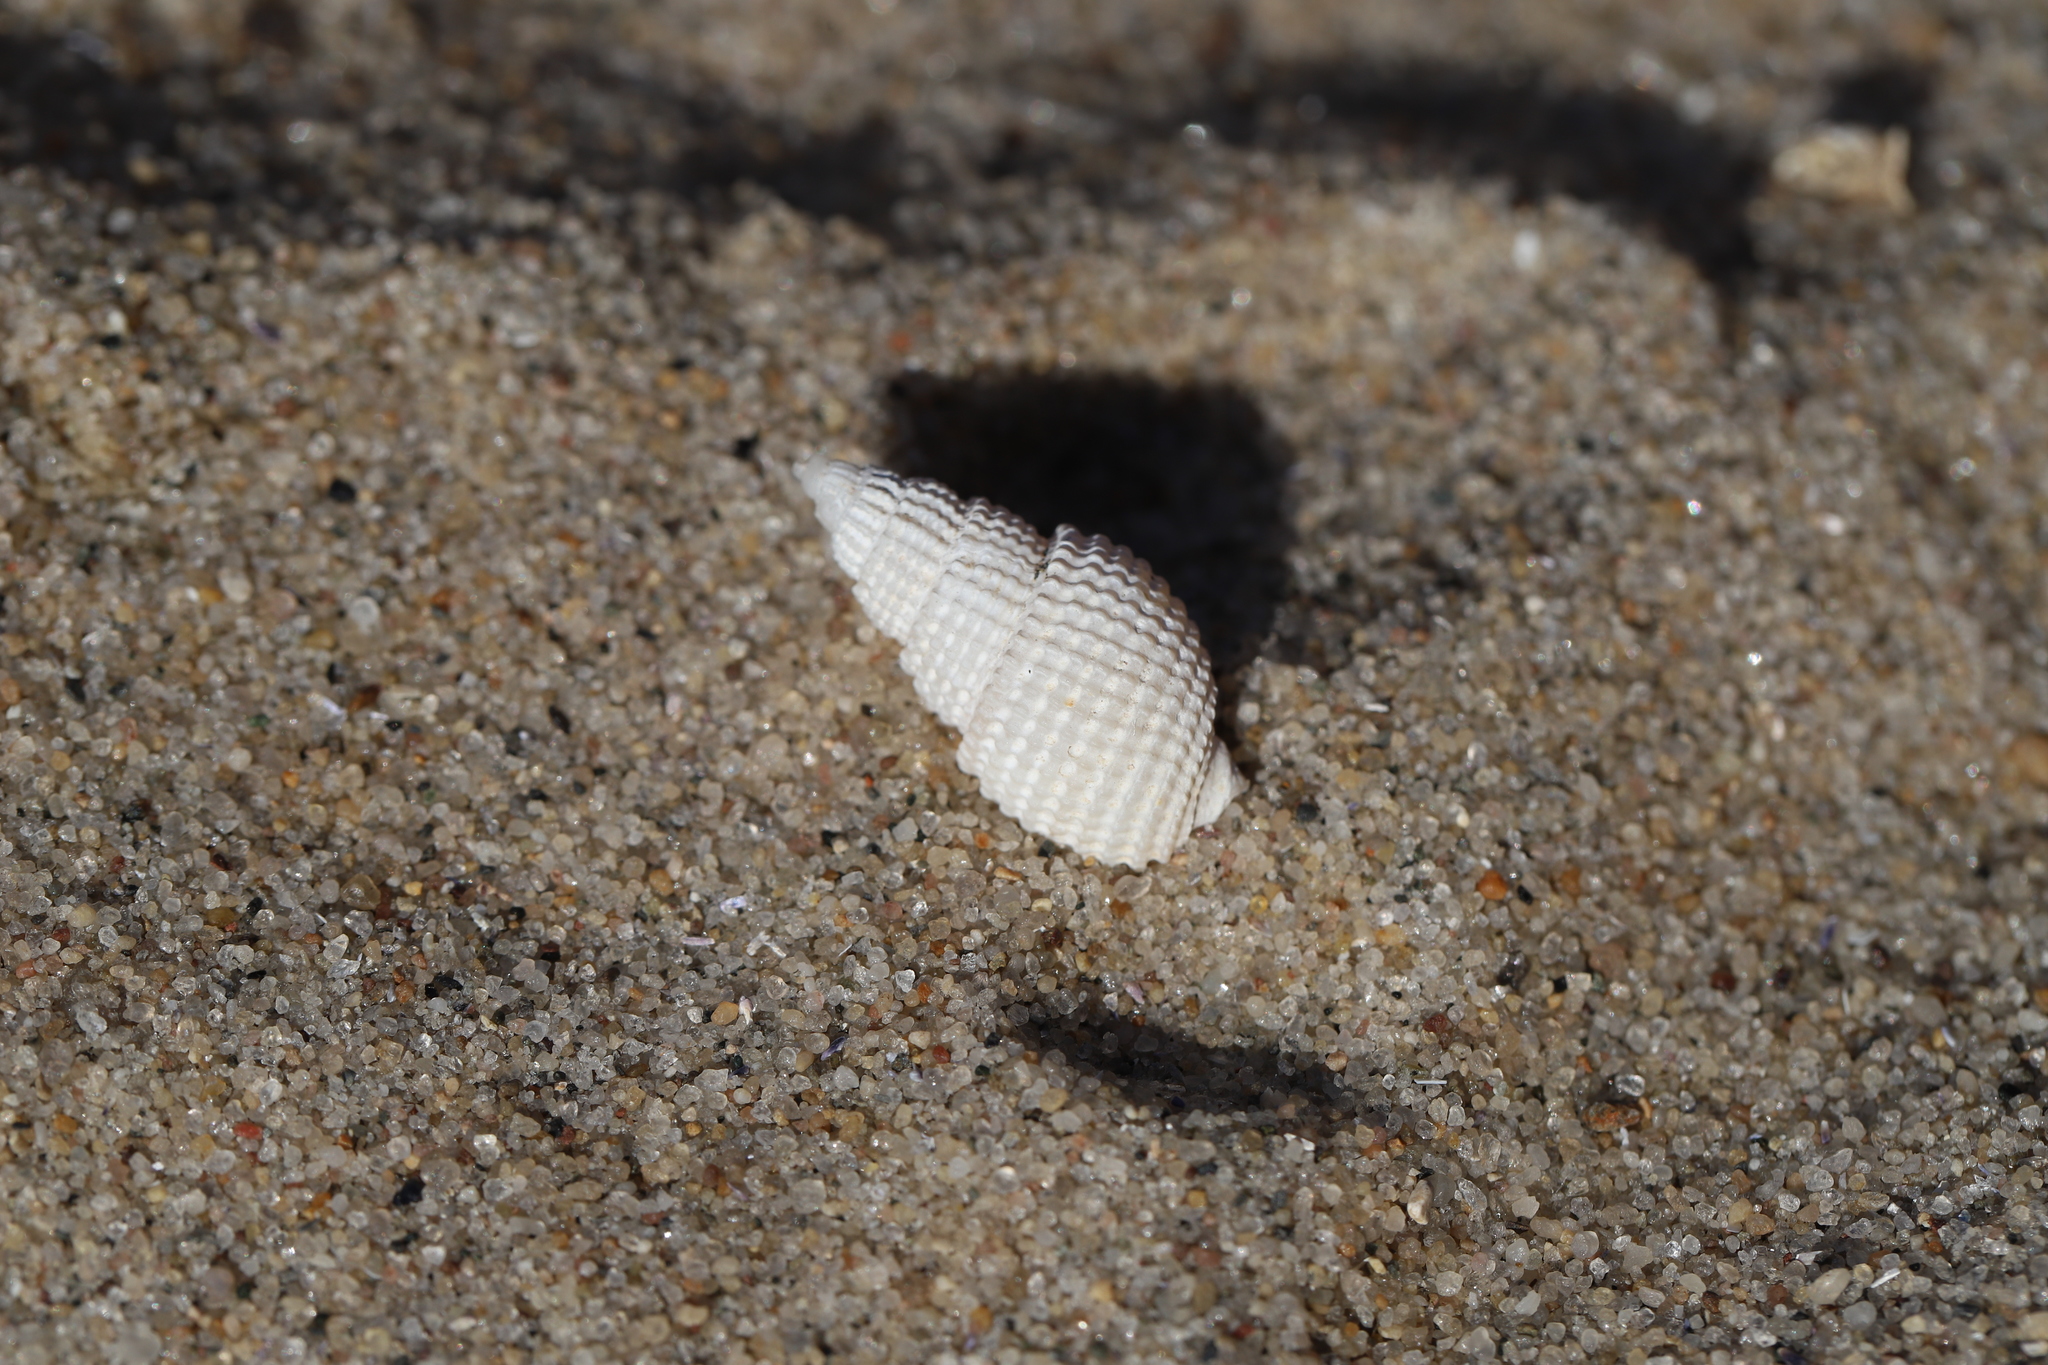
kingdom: Animalia
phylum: Mollusca
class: Gastropoda
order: Neogastropoda
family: Nassariidae
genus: Ilyanassa
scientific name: Ilyanassa trivittata
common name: Three-line mudsnail
